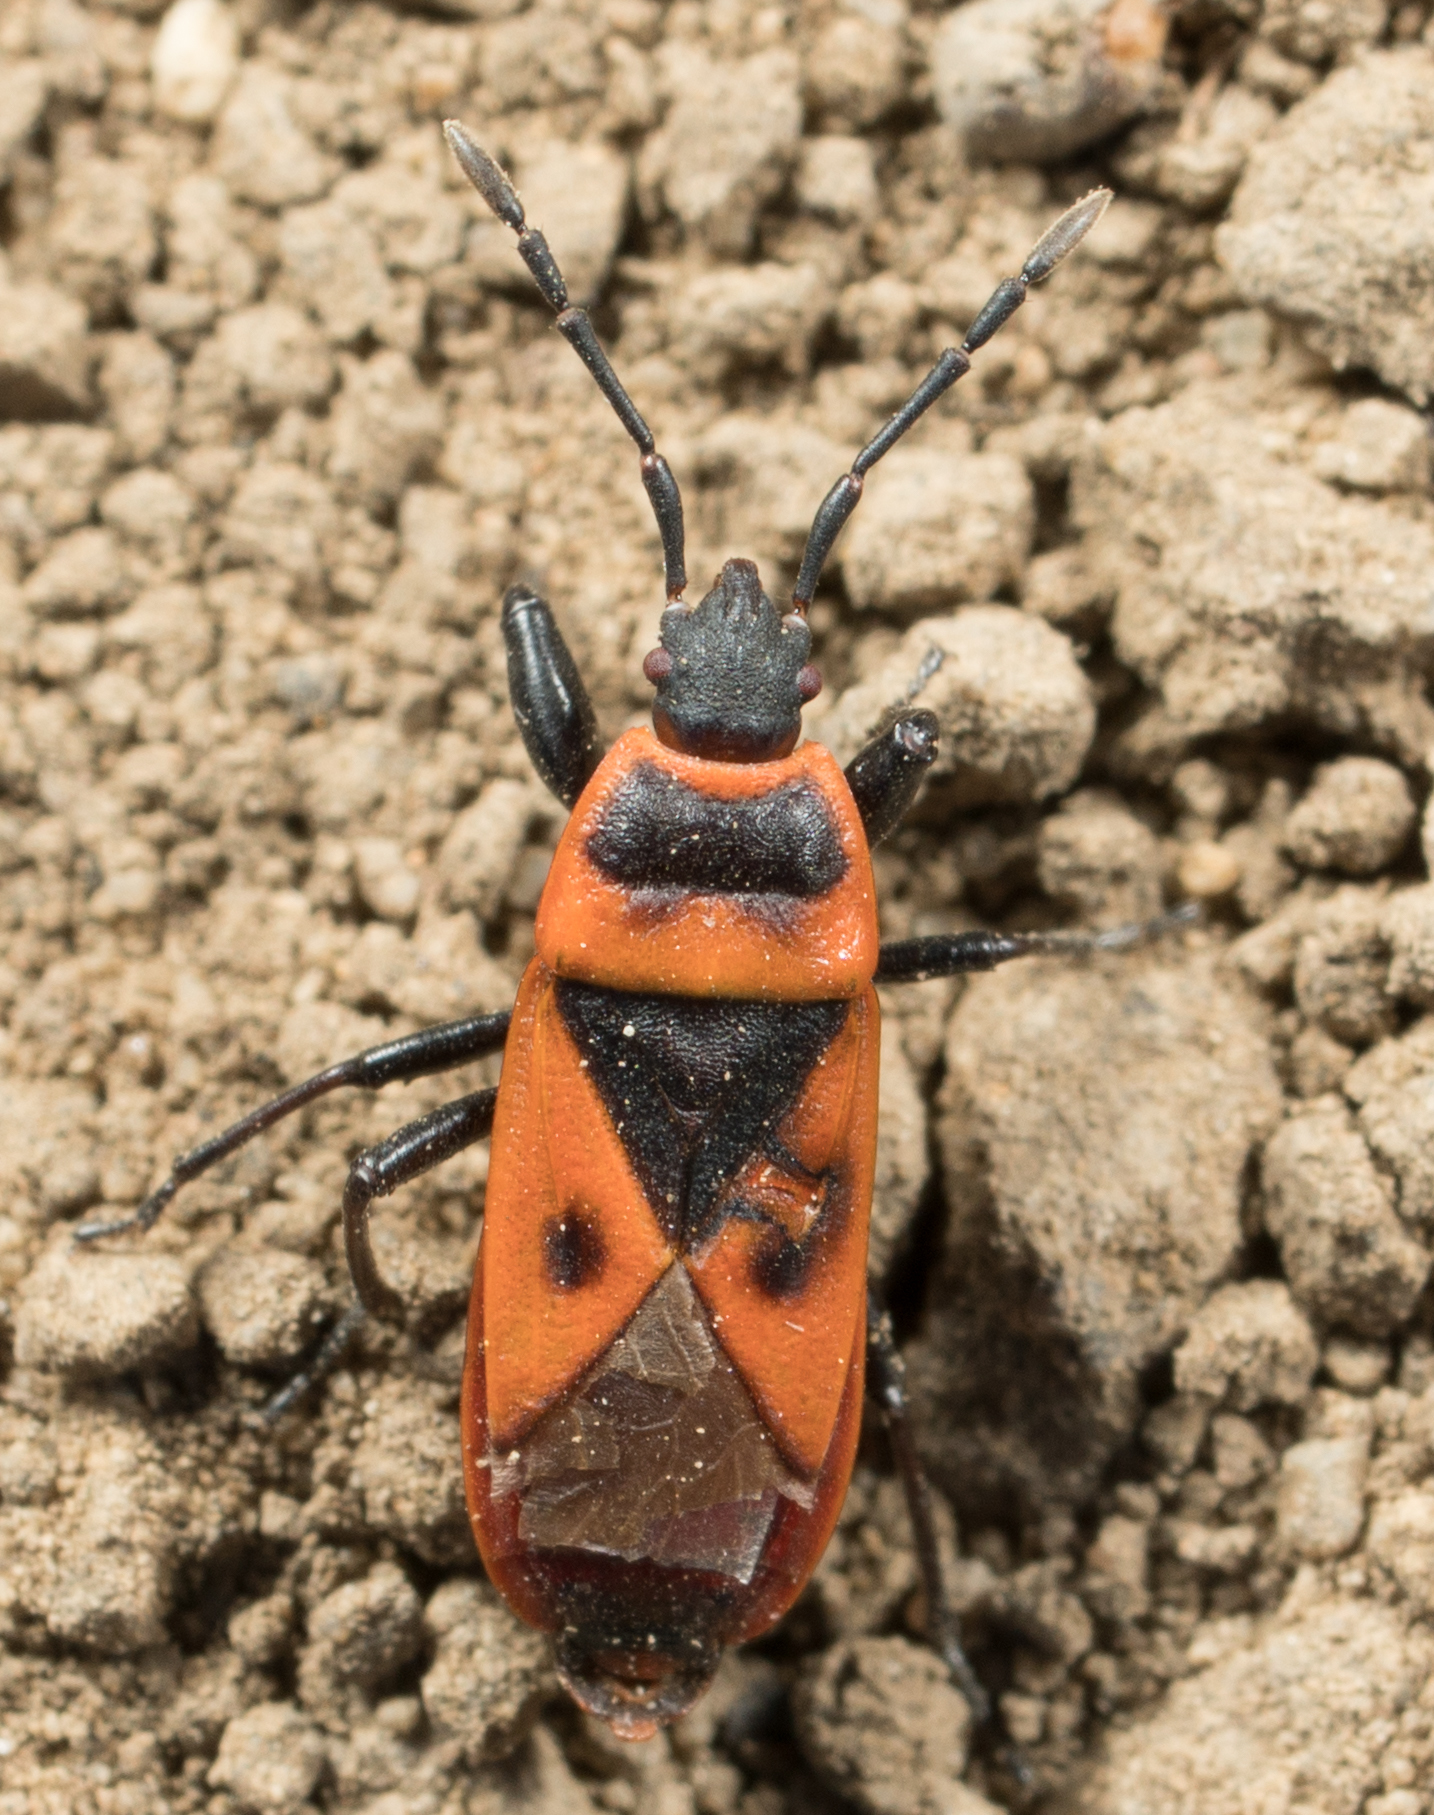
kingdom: Animalia
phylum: Arthropoda
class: Insecta
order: Hemiptera
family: Pyrrhocoridae
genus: Scantius
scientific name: Scantius aegyptius
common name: Red bug
